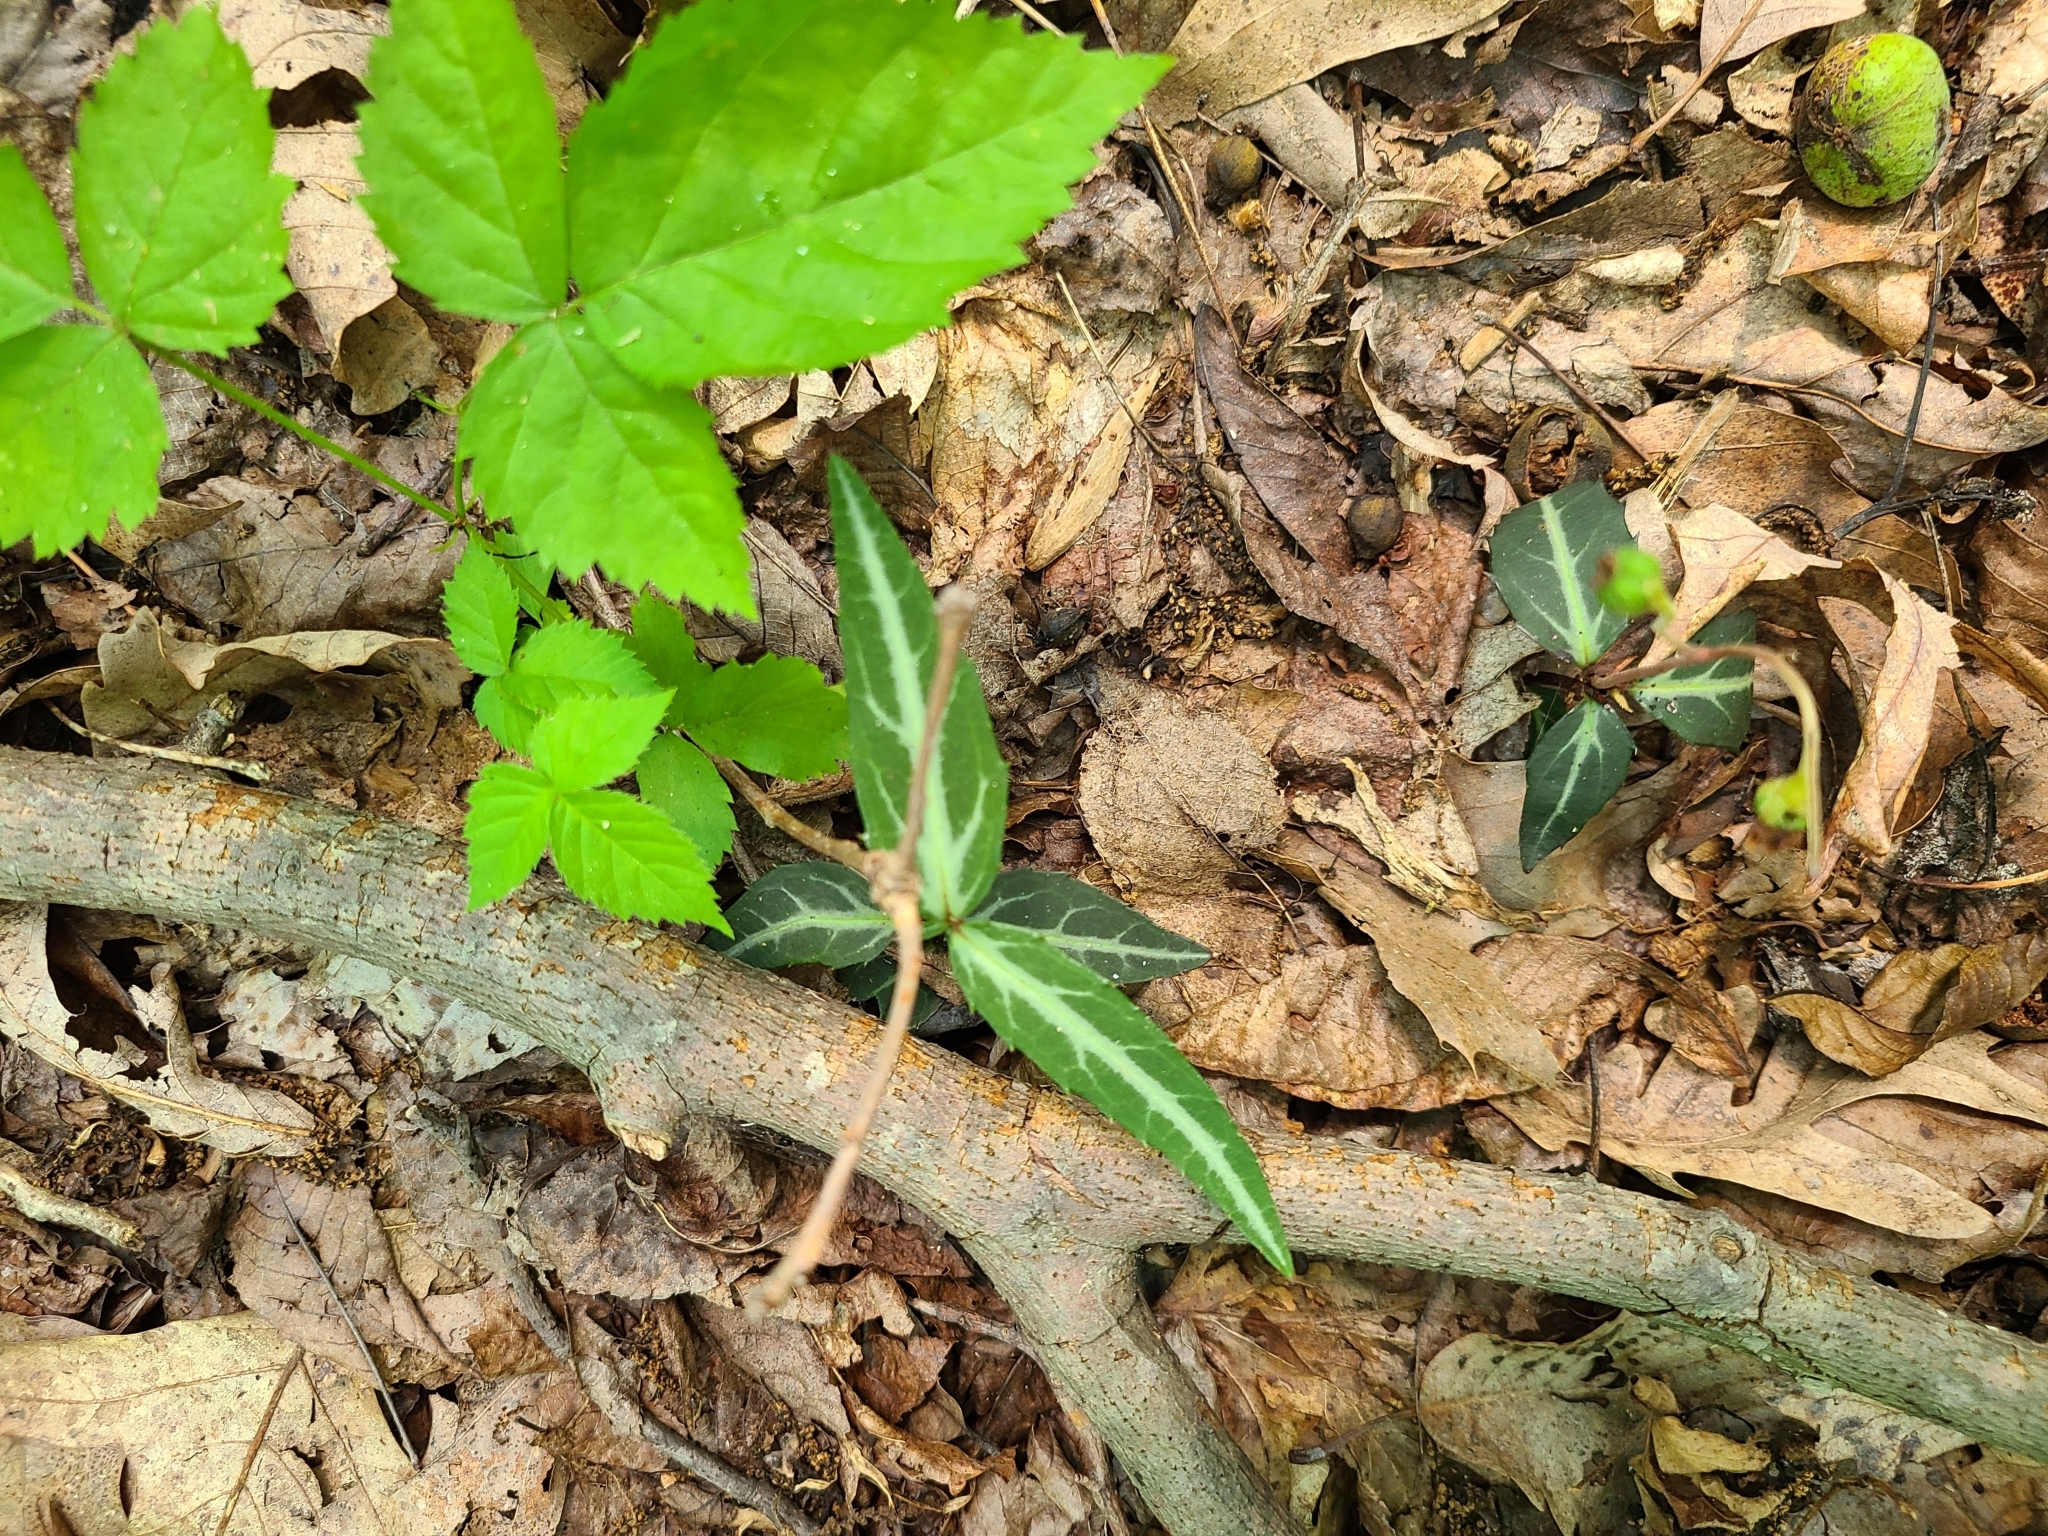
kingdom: Plantae
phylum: Tracheophyta
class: Magnoliopsida
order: Ericales
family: Ericaceae
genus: Chimaphila
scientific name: Chimaphila maculata
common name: Spotted pipsissewa
